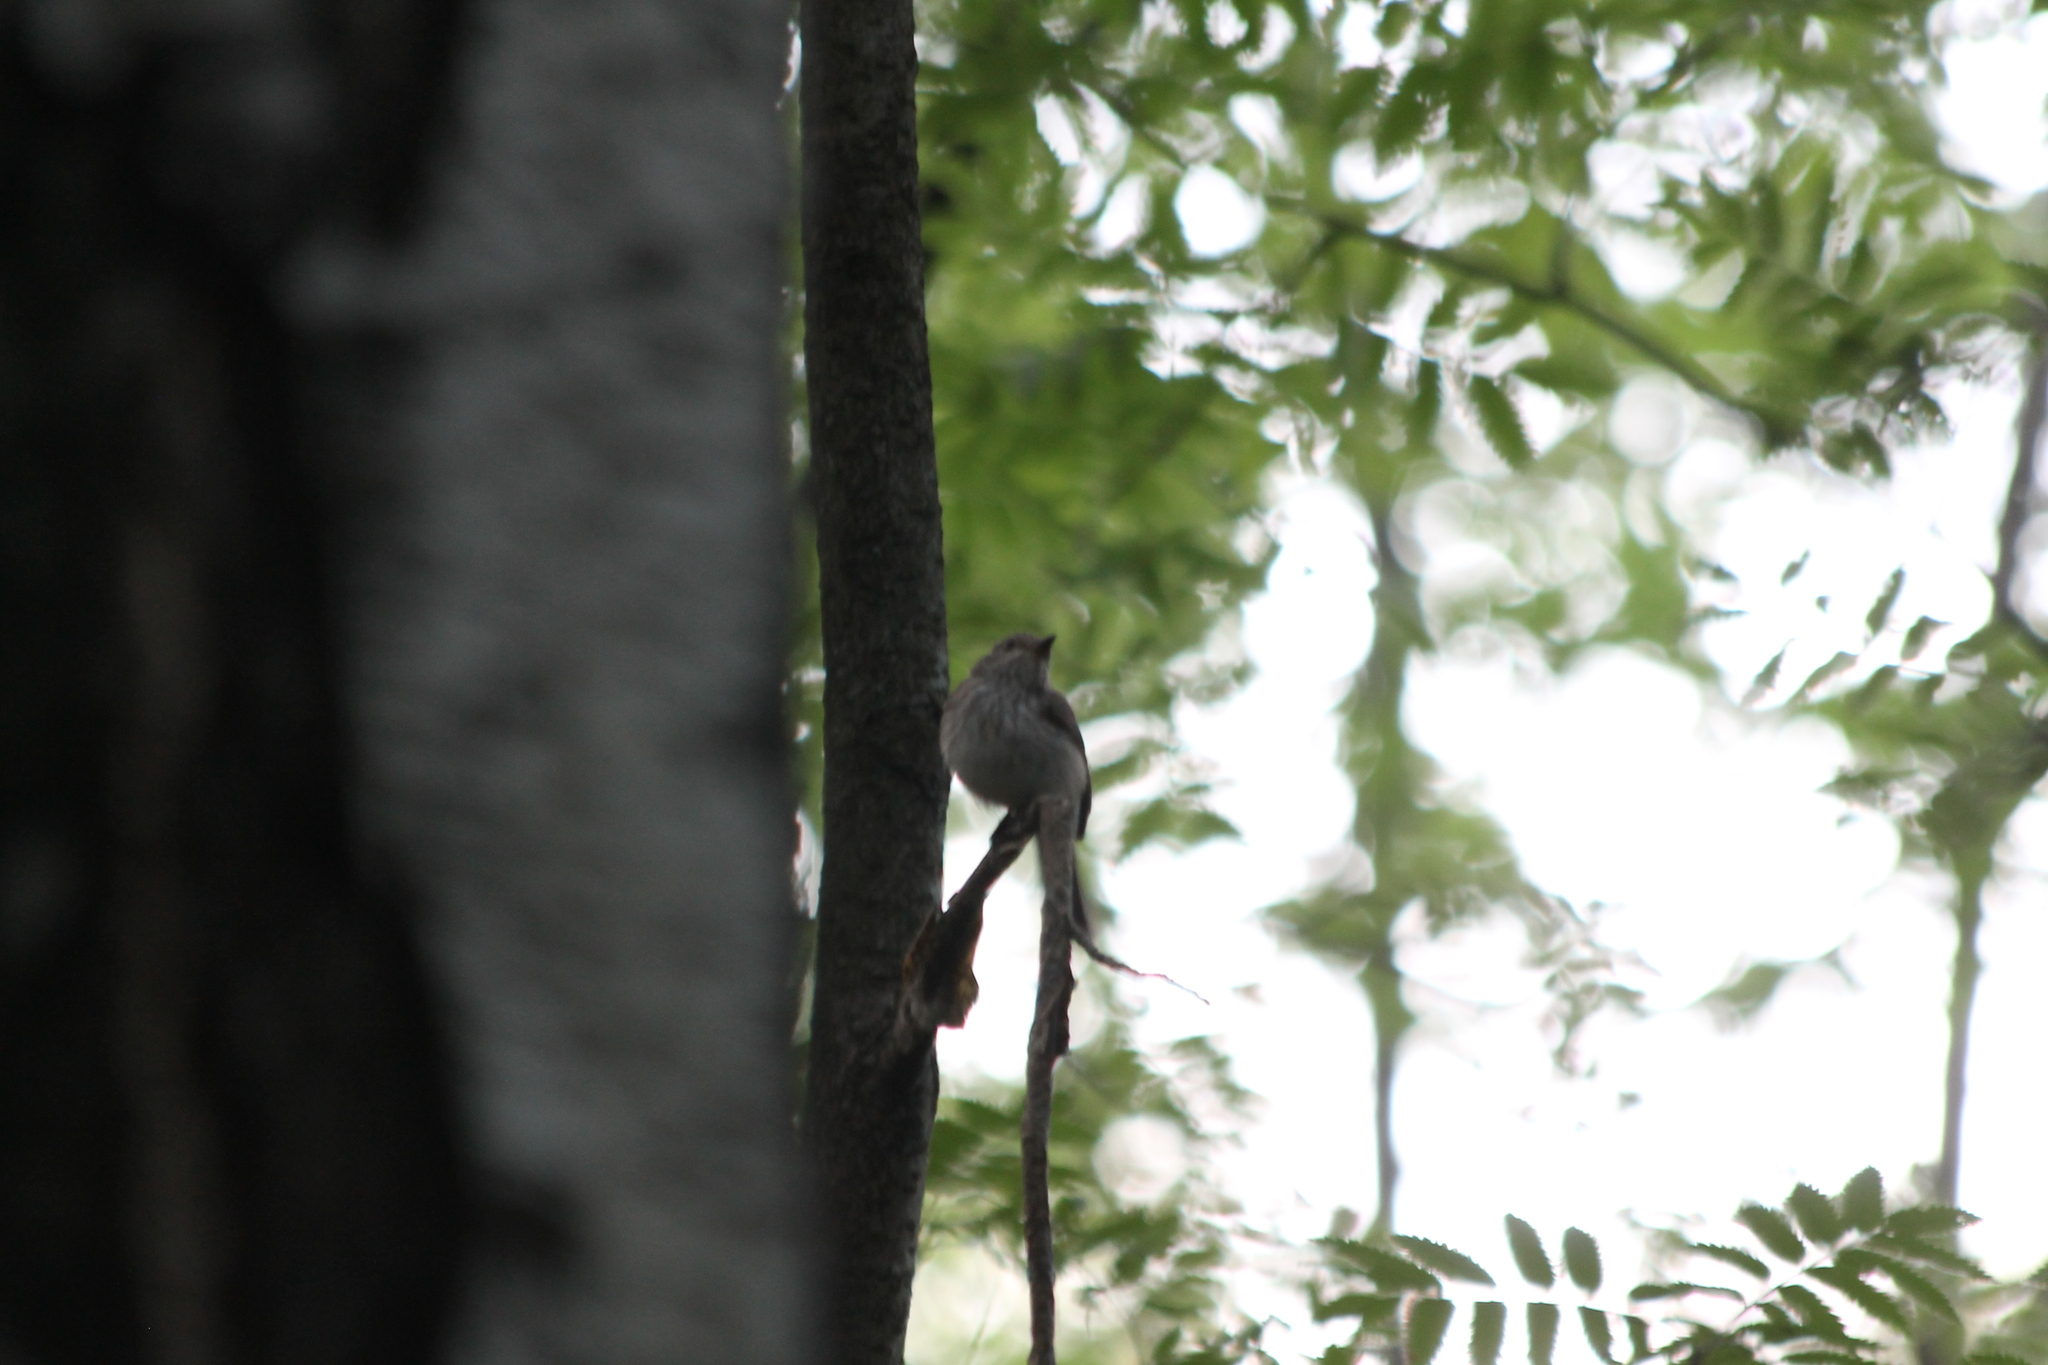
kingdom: Animalia
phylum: Chordata
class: Aves
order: Passeriformes
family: Muscicapidae
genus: Muscicapa
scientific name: Muscicapa striata
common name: Spotted flycatcher
